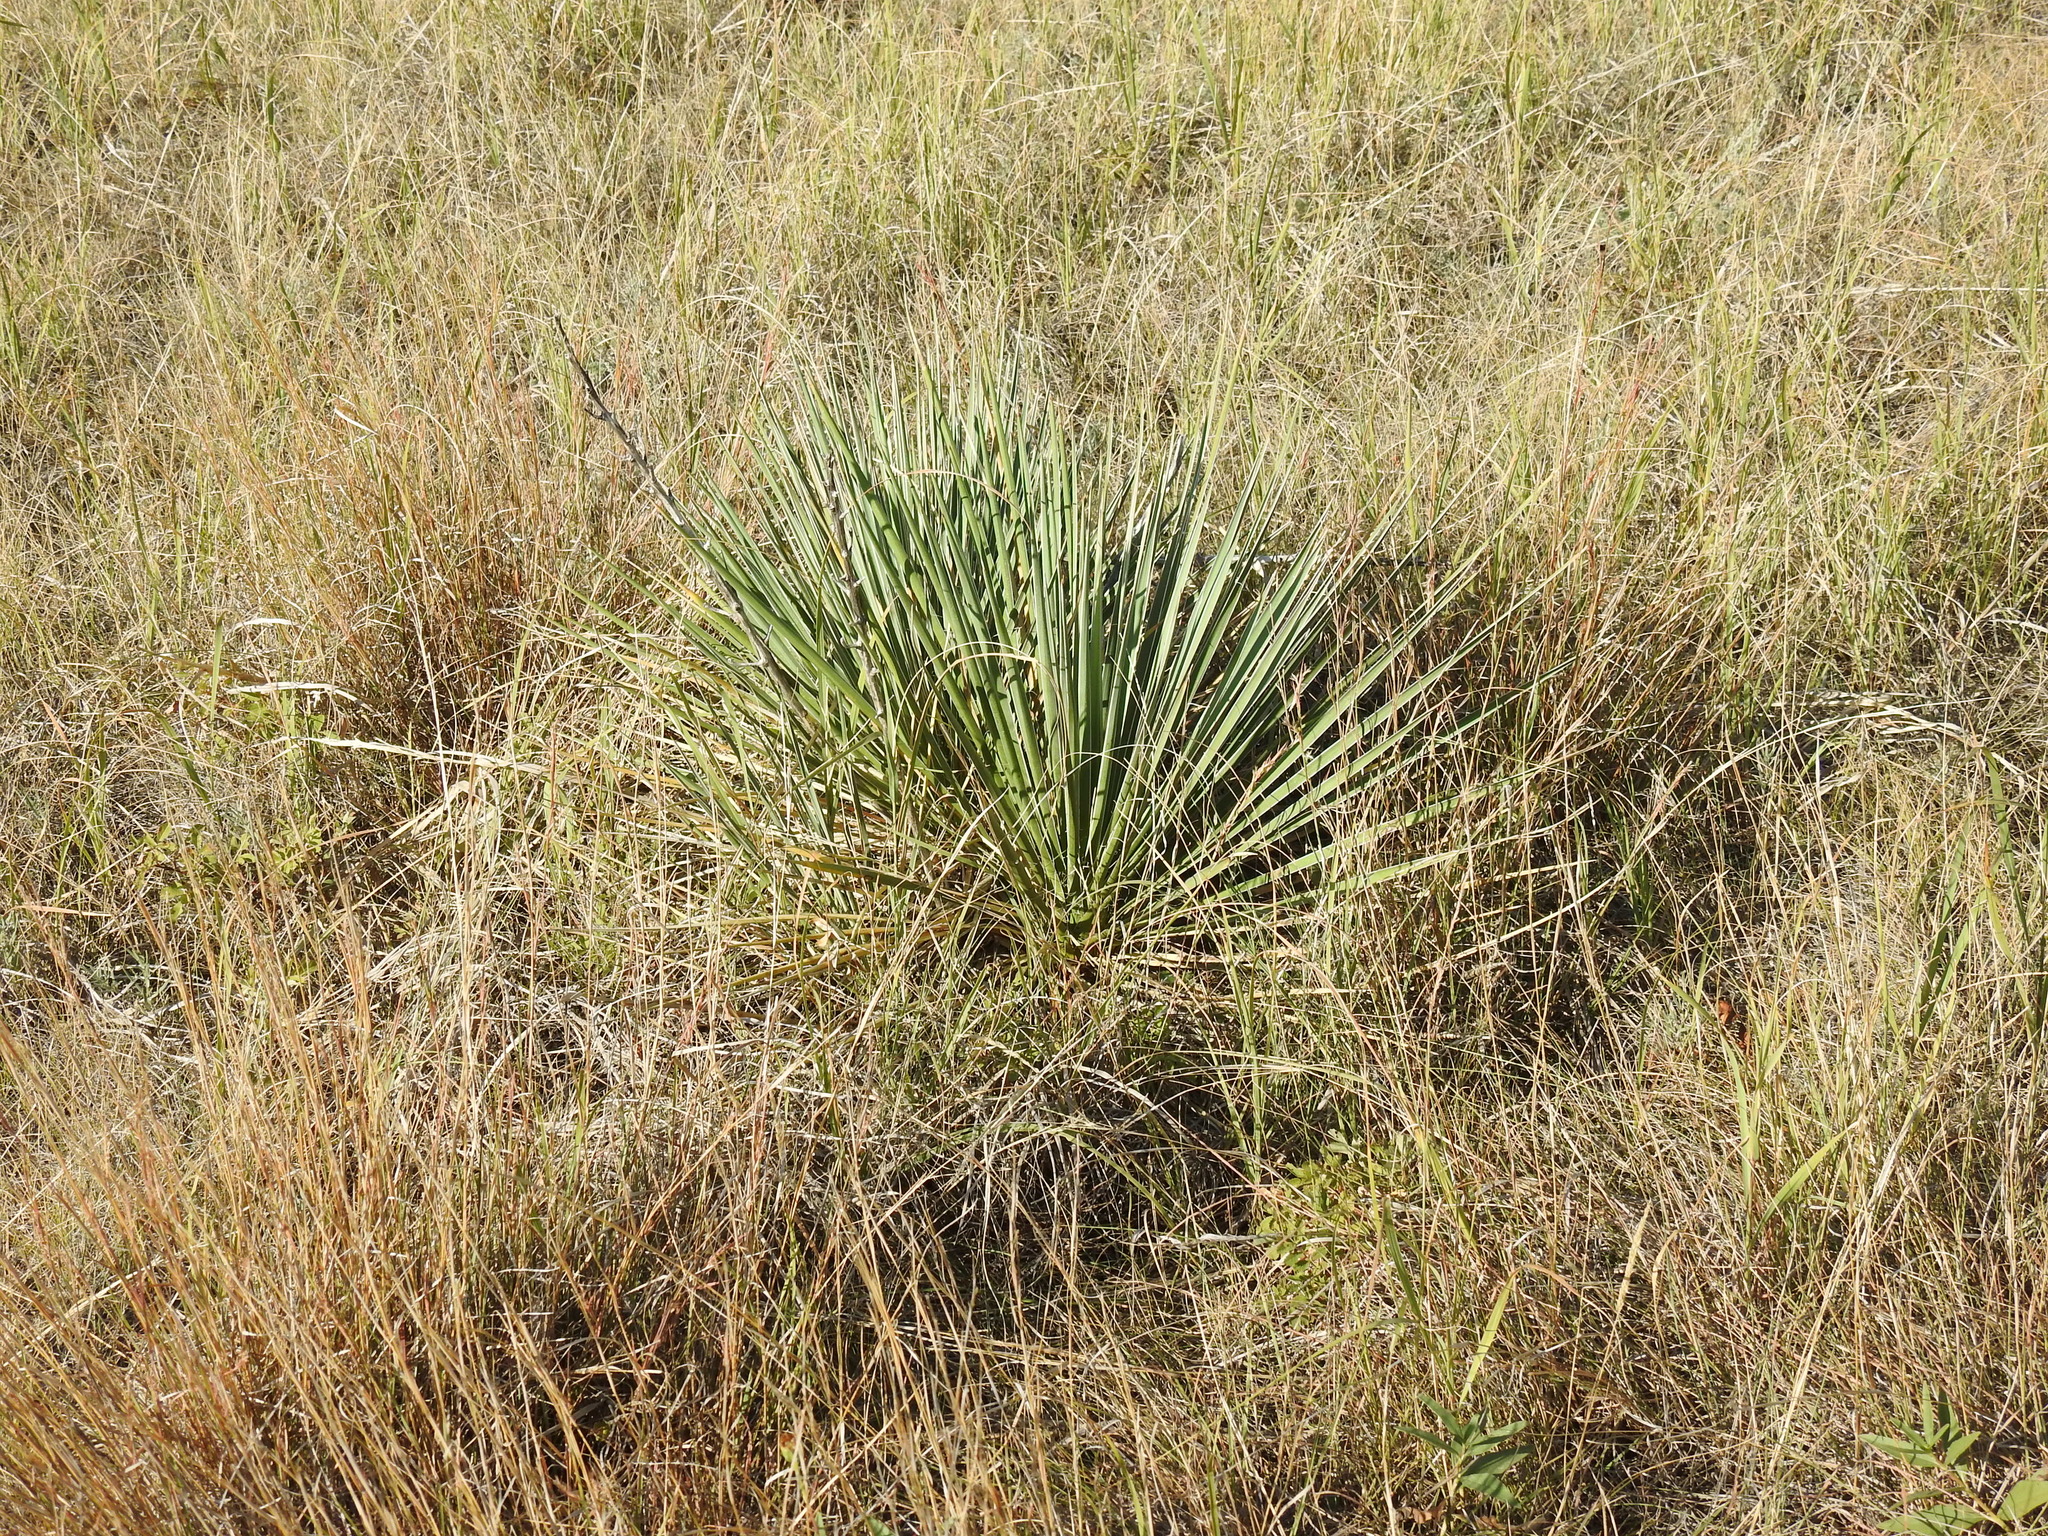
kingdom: Plantae
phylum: Tracheophyta
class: Liliopsida
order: Asparagales
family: Asparagaceae
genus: Yucca
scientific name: Yucca glauca
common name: Great plains yucca
